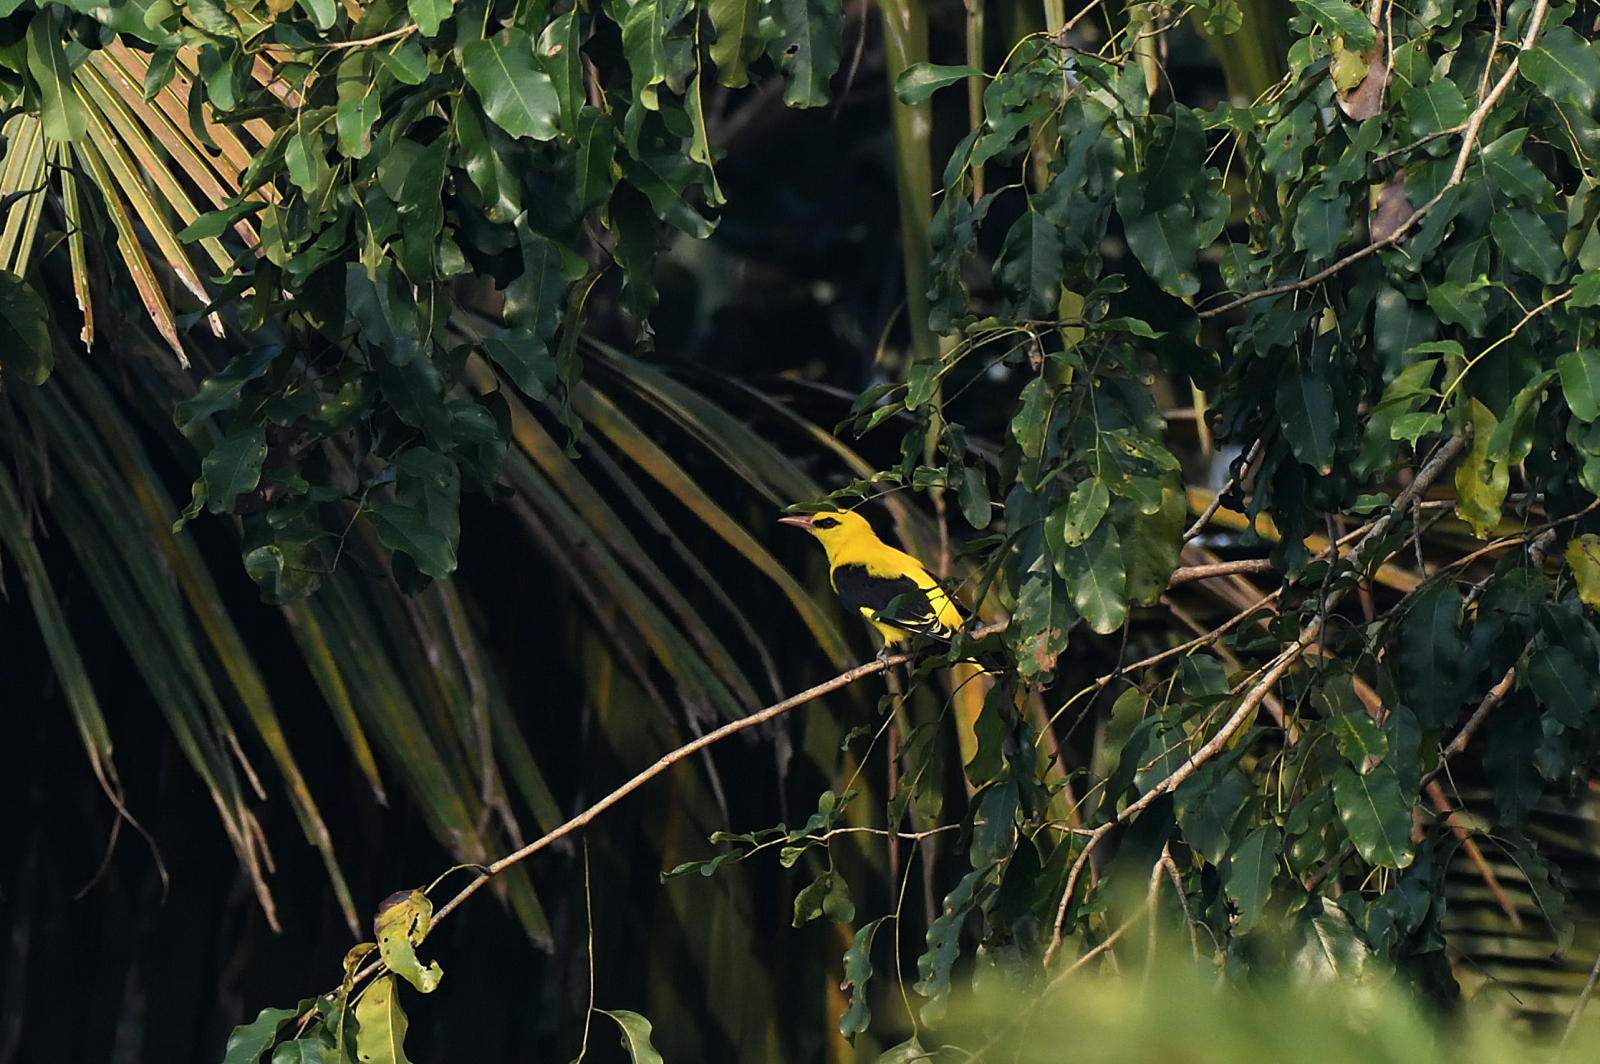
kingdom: Animalia
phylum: Chordata
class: Aves
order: Passeriformes
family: Oriolidae
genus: Oriolus
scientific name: Oriolus kundoo
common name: Indian golden oriole
